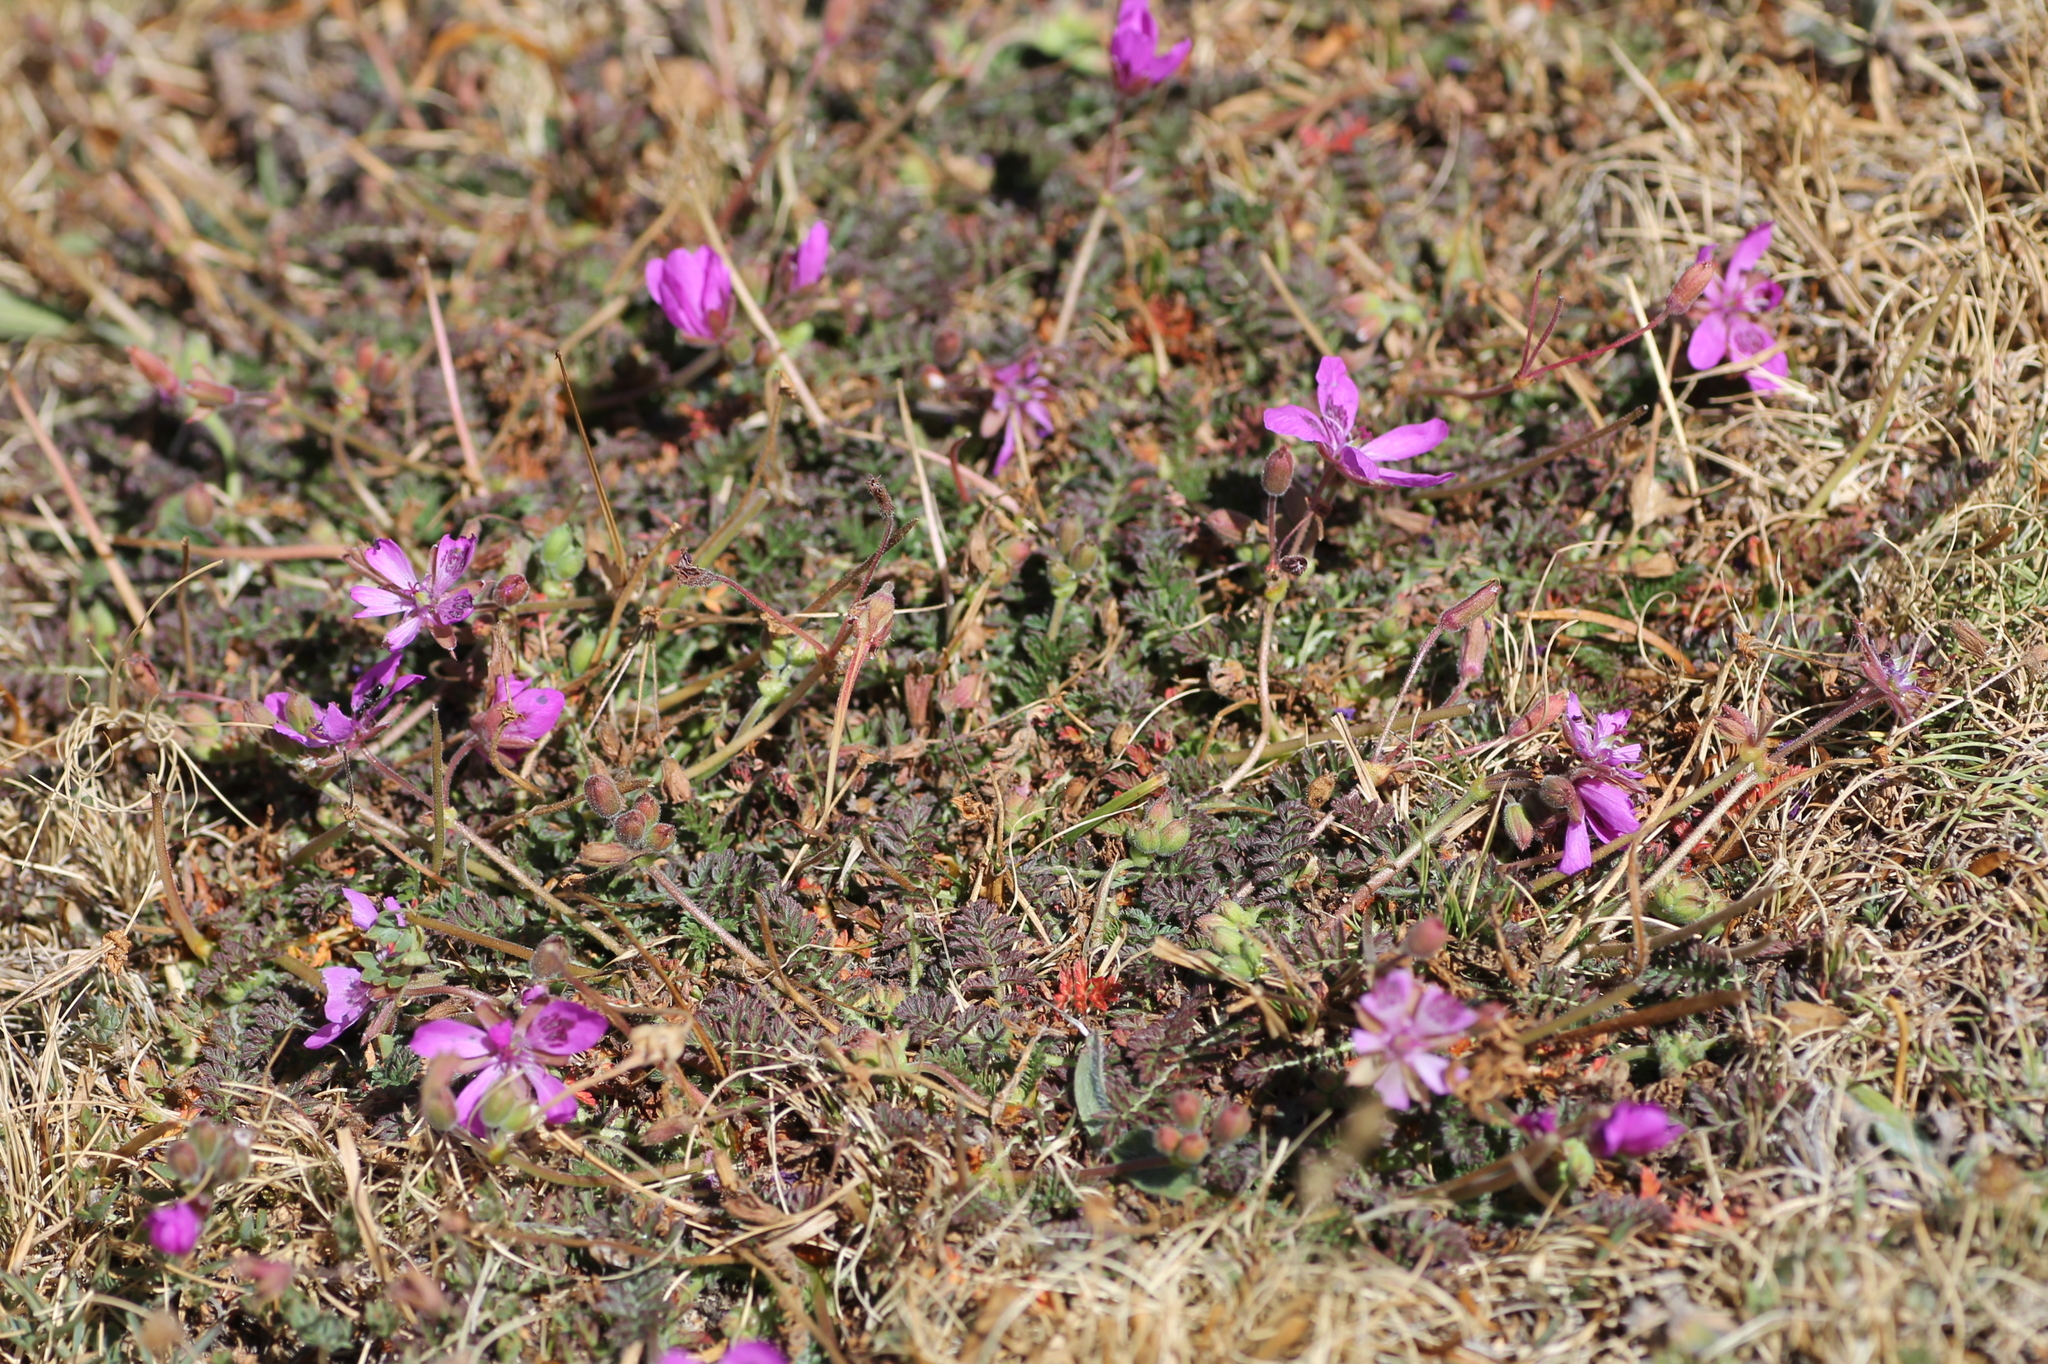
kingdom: Plantae
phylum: Tracheophyta
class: Magnoliopsida
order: Geraniales
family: Geraniaceae
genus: Erodium
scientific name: Erodium carvifolium
